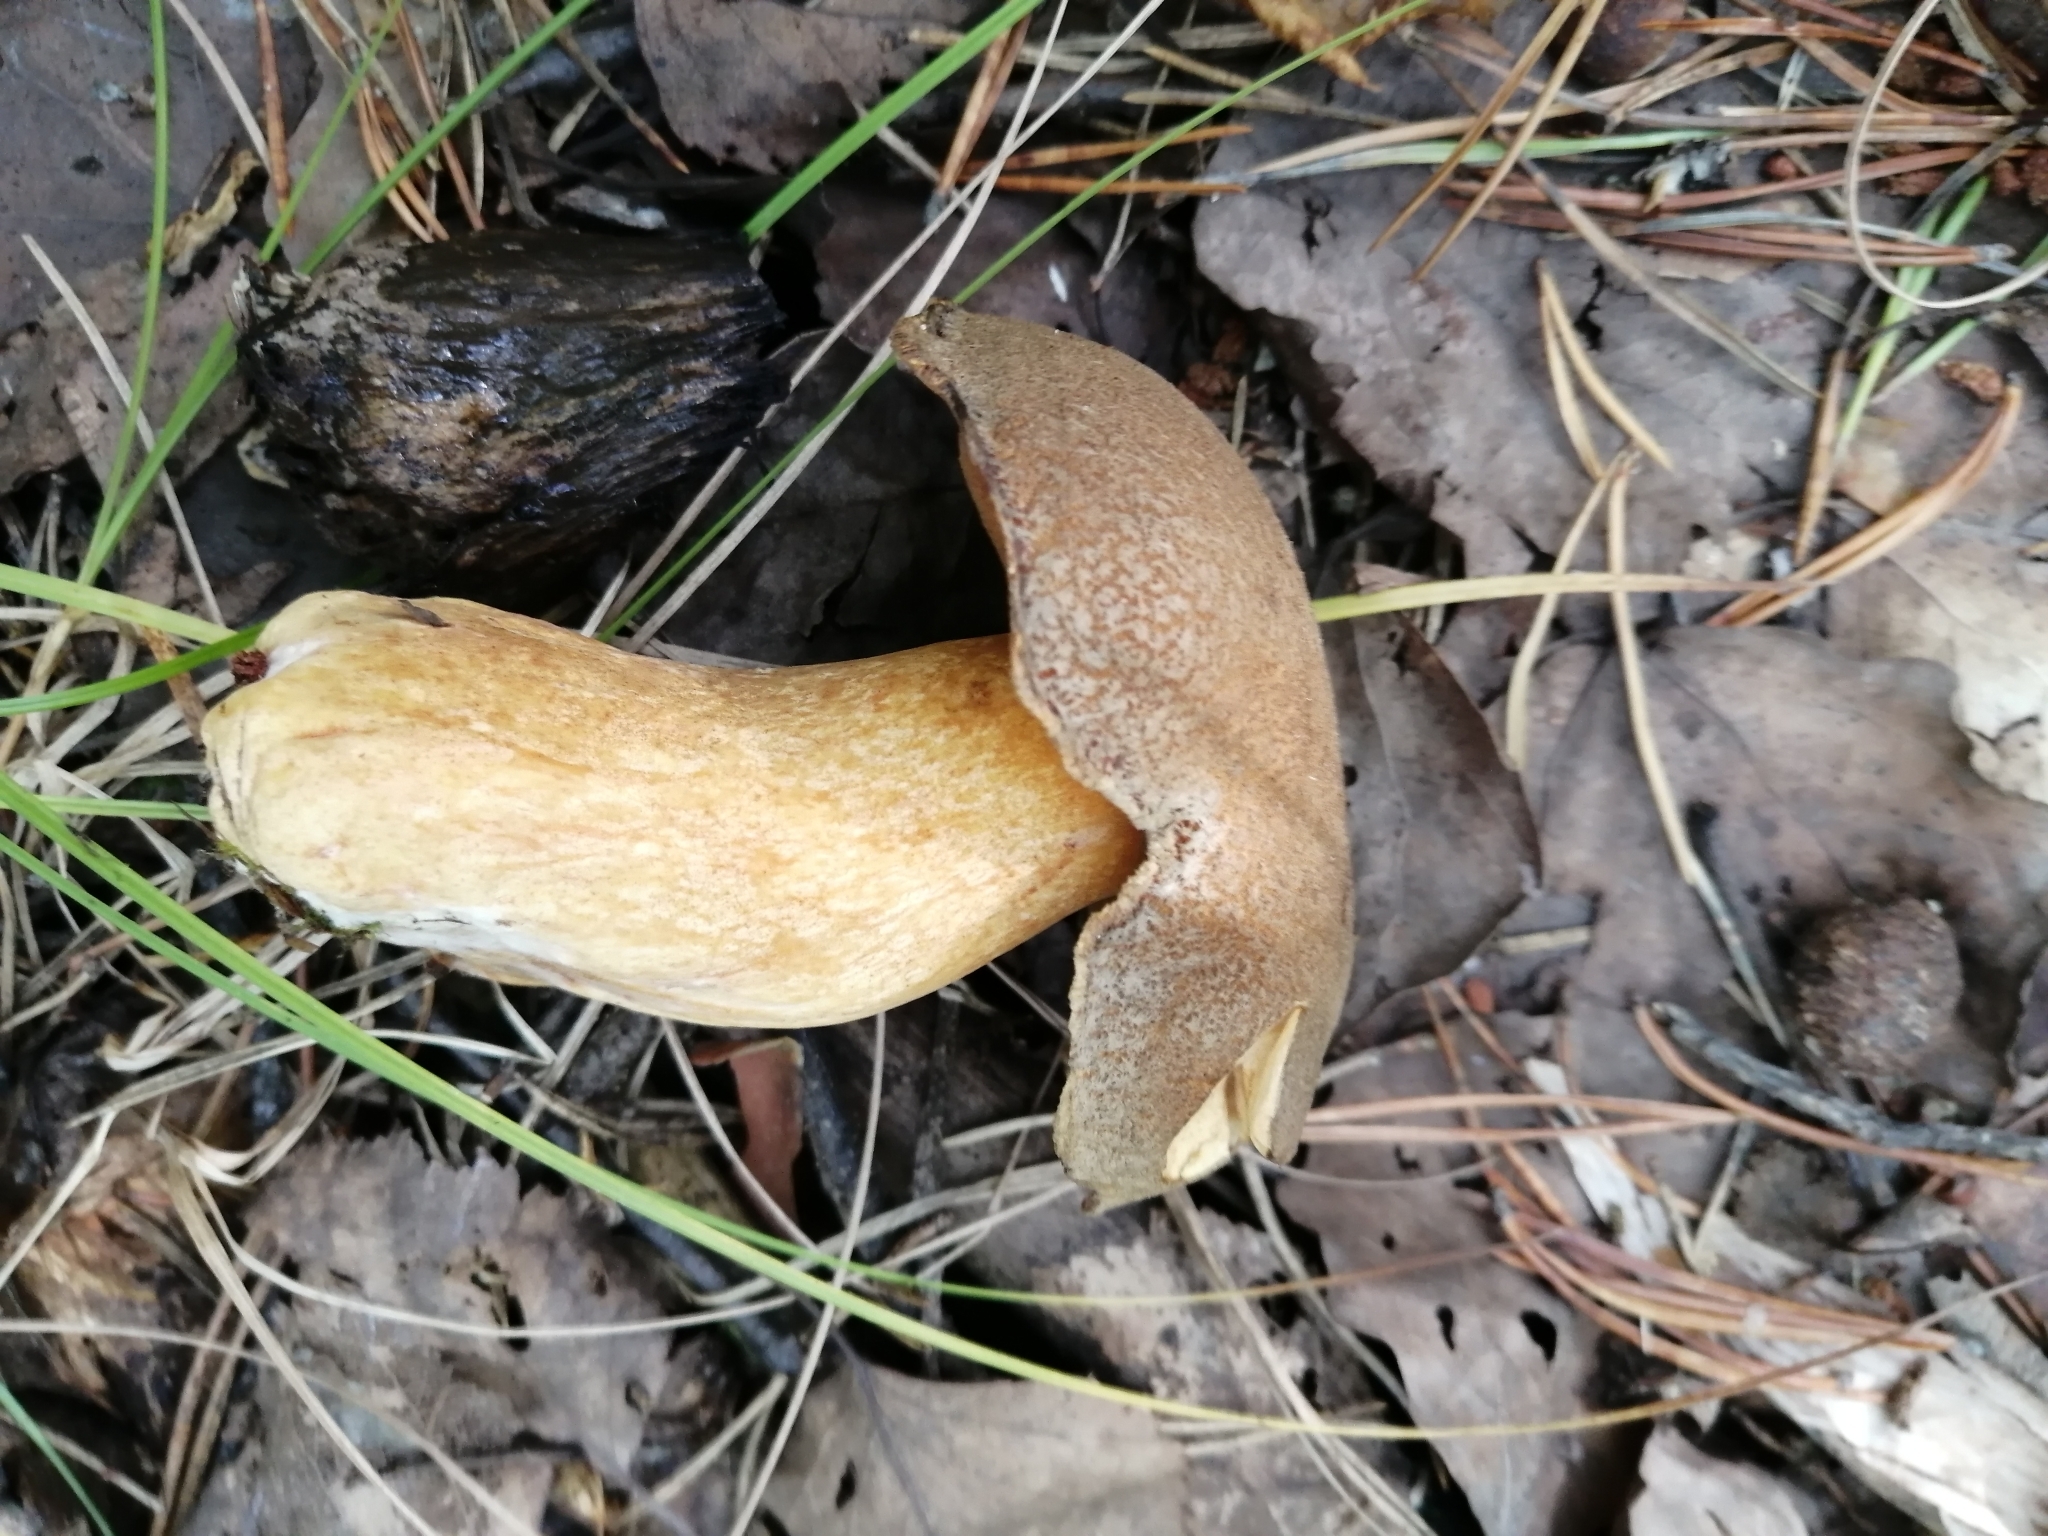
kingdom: Fungi
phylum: Basidiomycota
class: Agaricomycetes
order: Boletales
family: Suillaceae
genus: Suillus
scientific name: Suillus variegatus
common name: Velvet bolete
